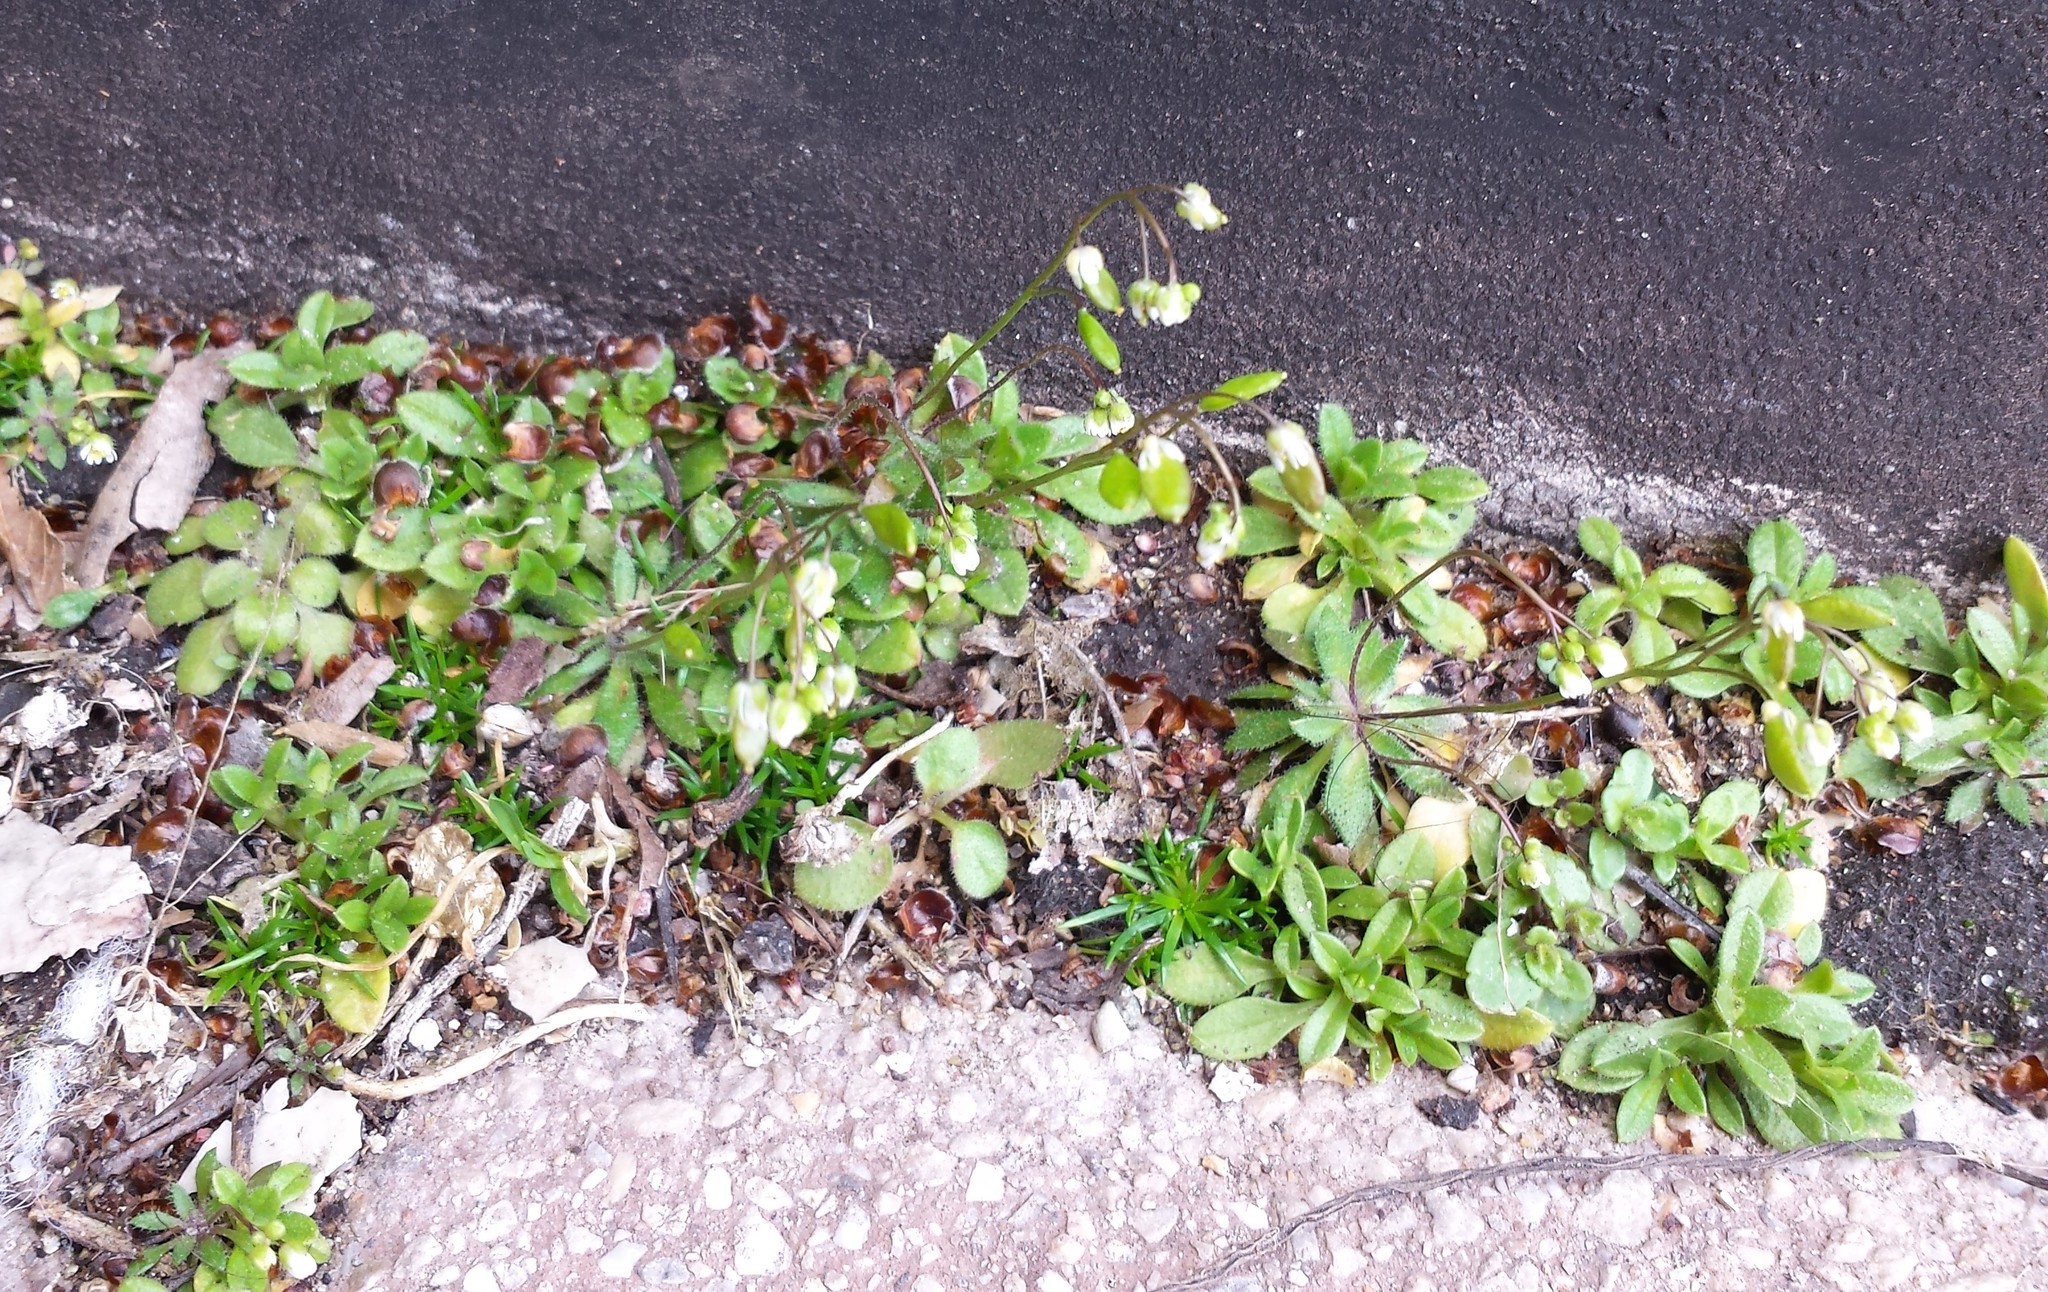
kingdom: Plantae
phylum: Tracheophyta
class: Magnoliopsida
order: Brassicales
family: Brassicaceae
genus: Draba
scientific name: Draba verna
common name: Spring draba
